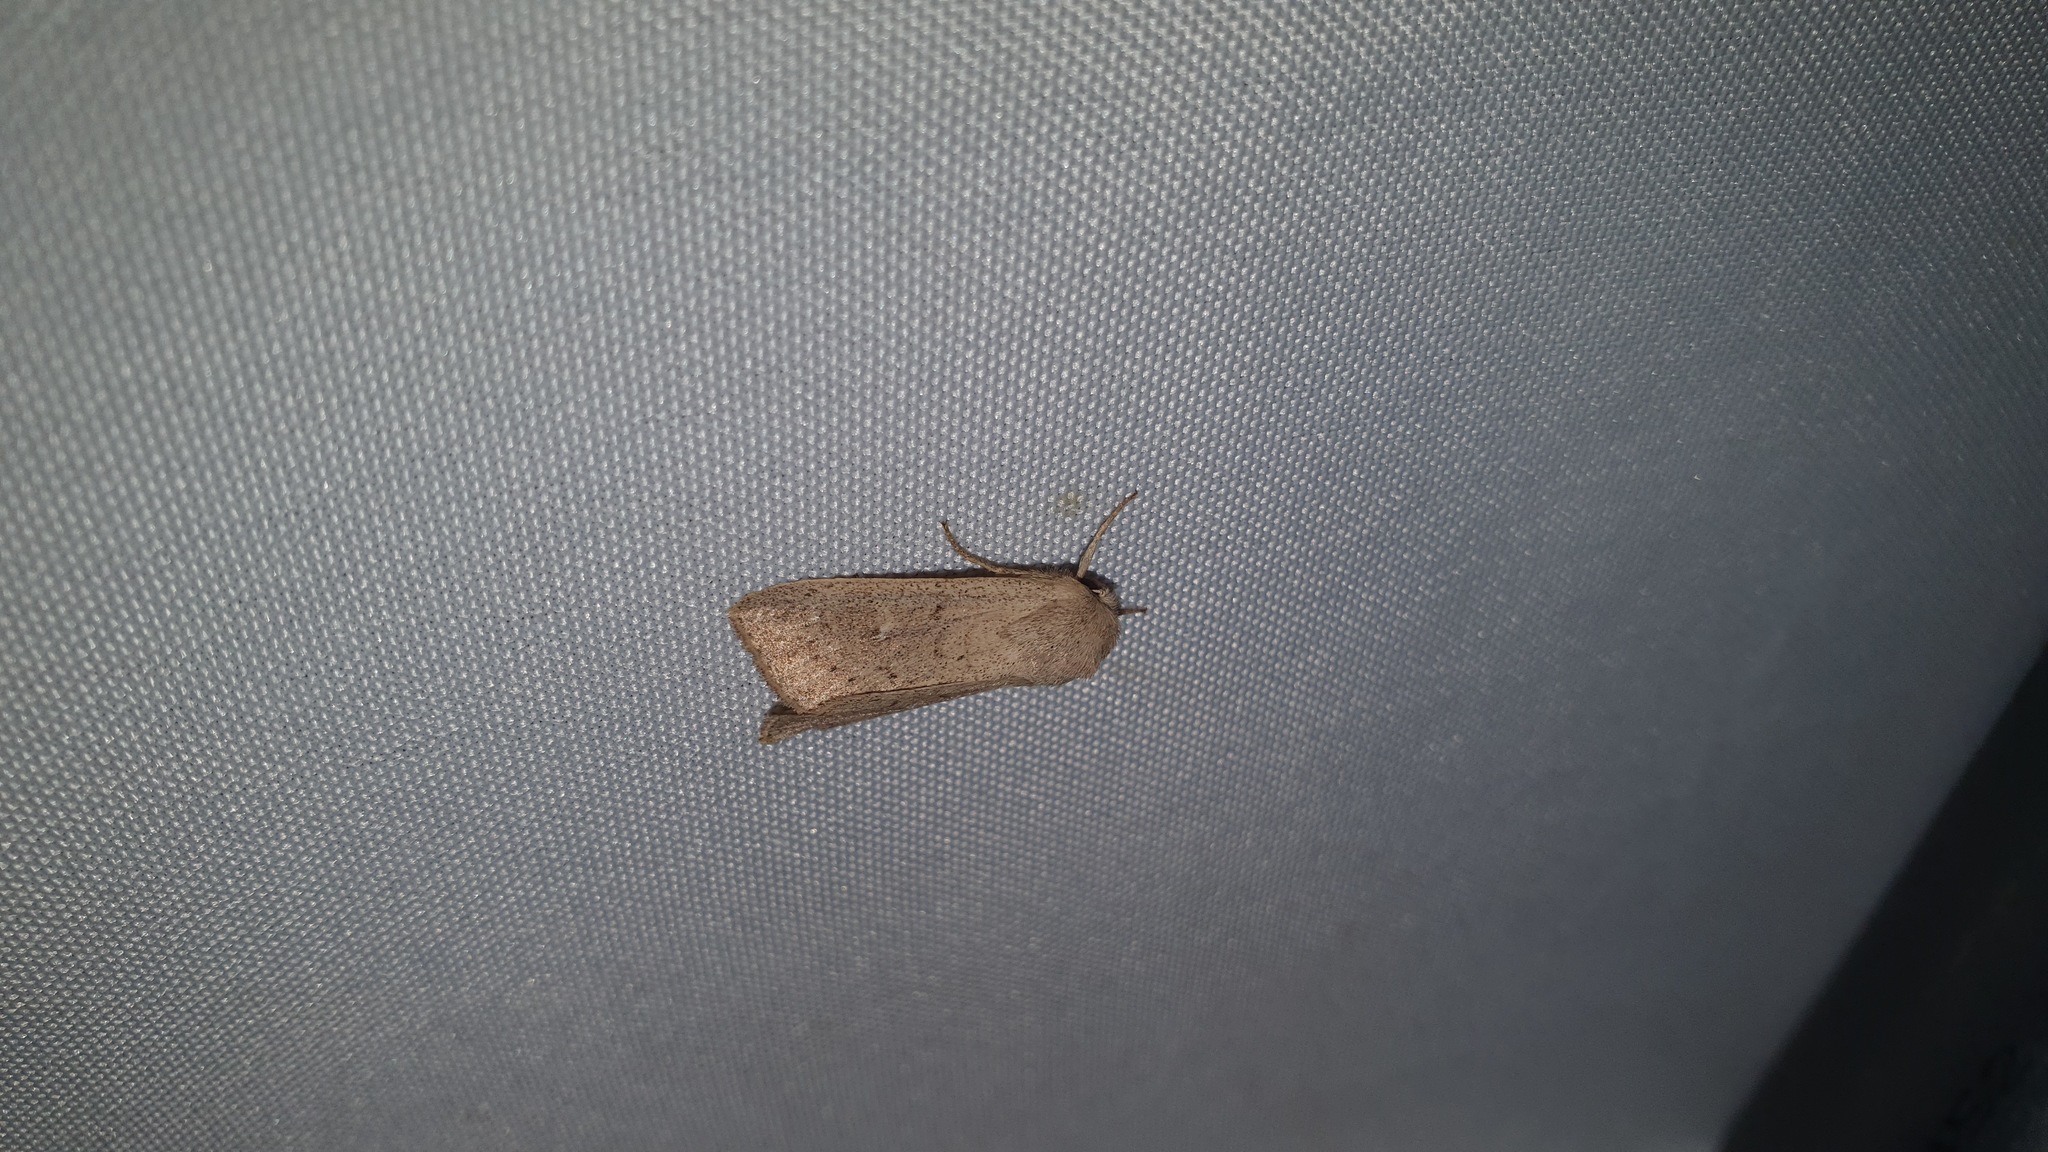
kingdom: Animalia
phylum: Arthropoda
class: Insecta
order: Lepidoptera
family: Noctuidae
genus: Mythimna
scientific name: Mythimna ferrago
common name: Clay
